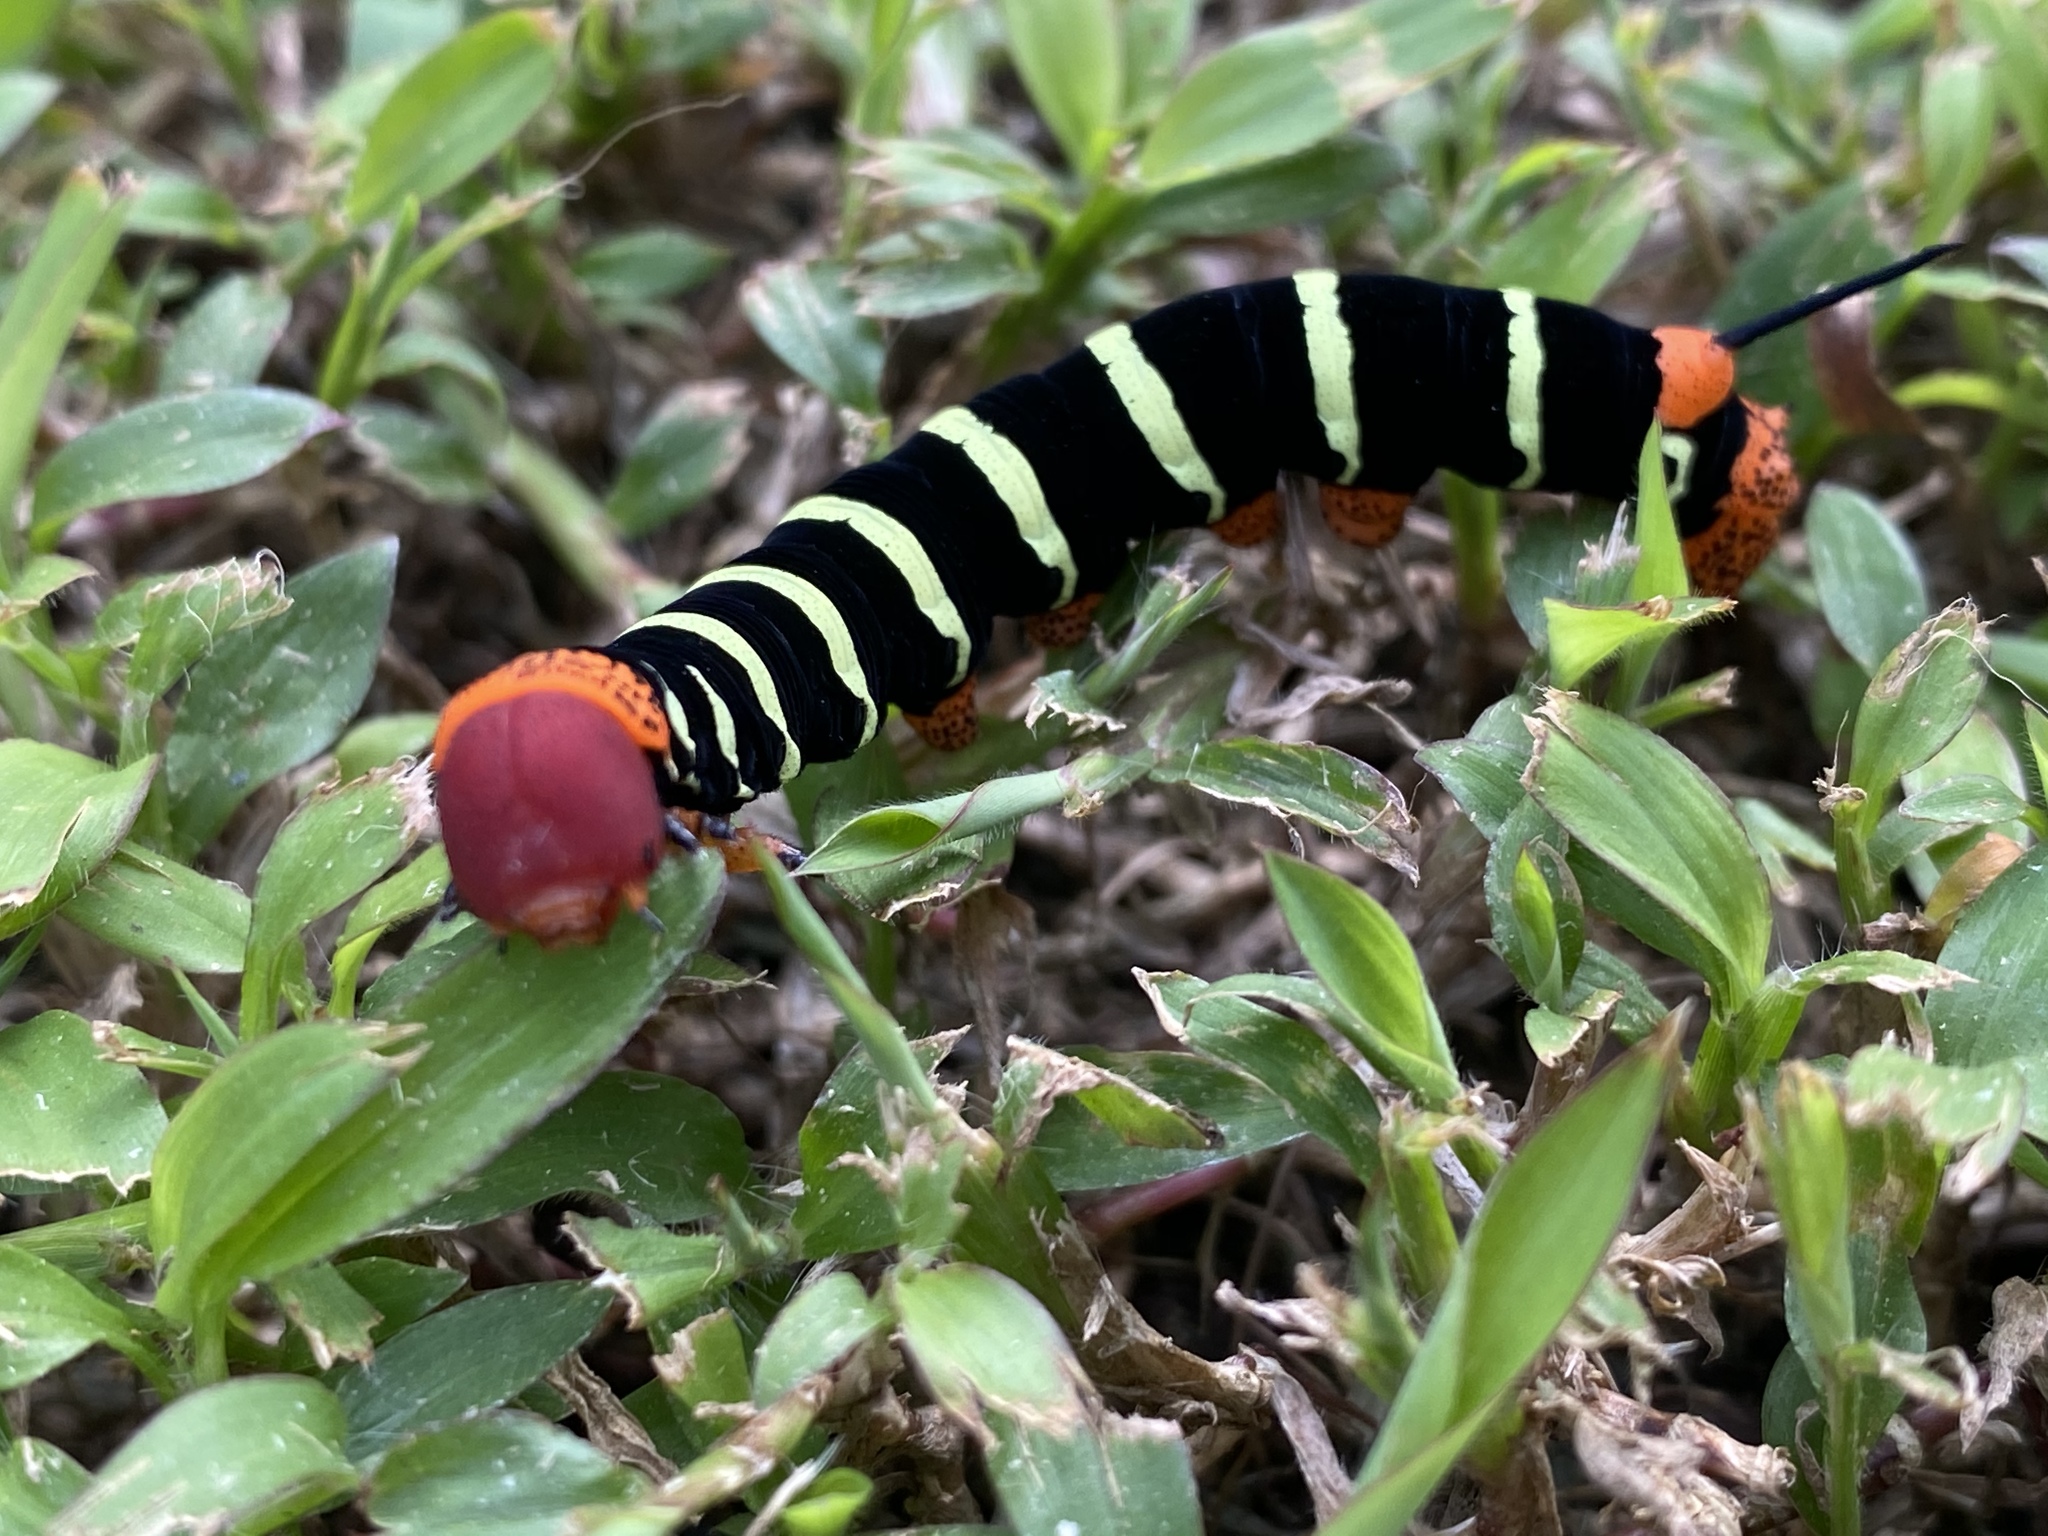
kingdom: Animalia
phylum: Arthropoda
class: Insecta
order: Lepidoptera
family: Sphingidae
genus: Pseudosphinx
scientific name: Pseudosphinx tetrio
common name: Tetrio sphinx
